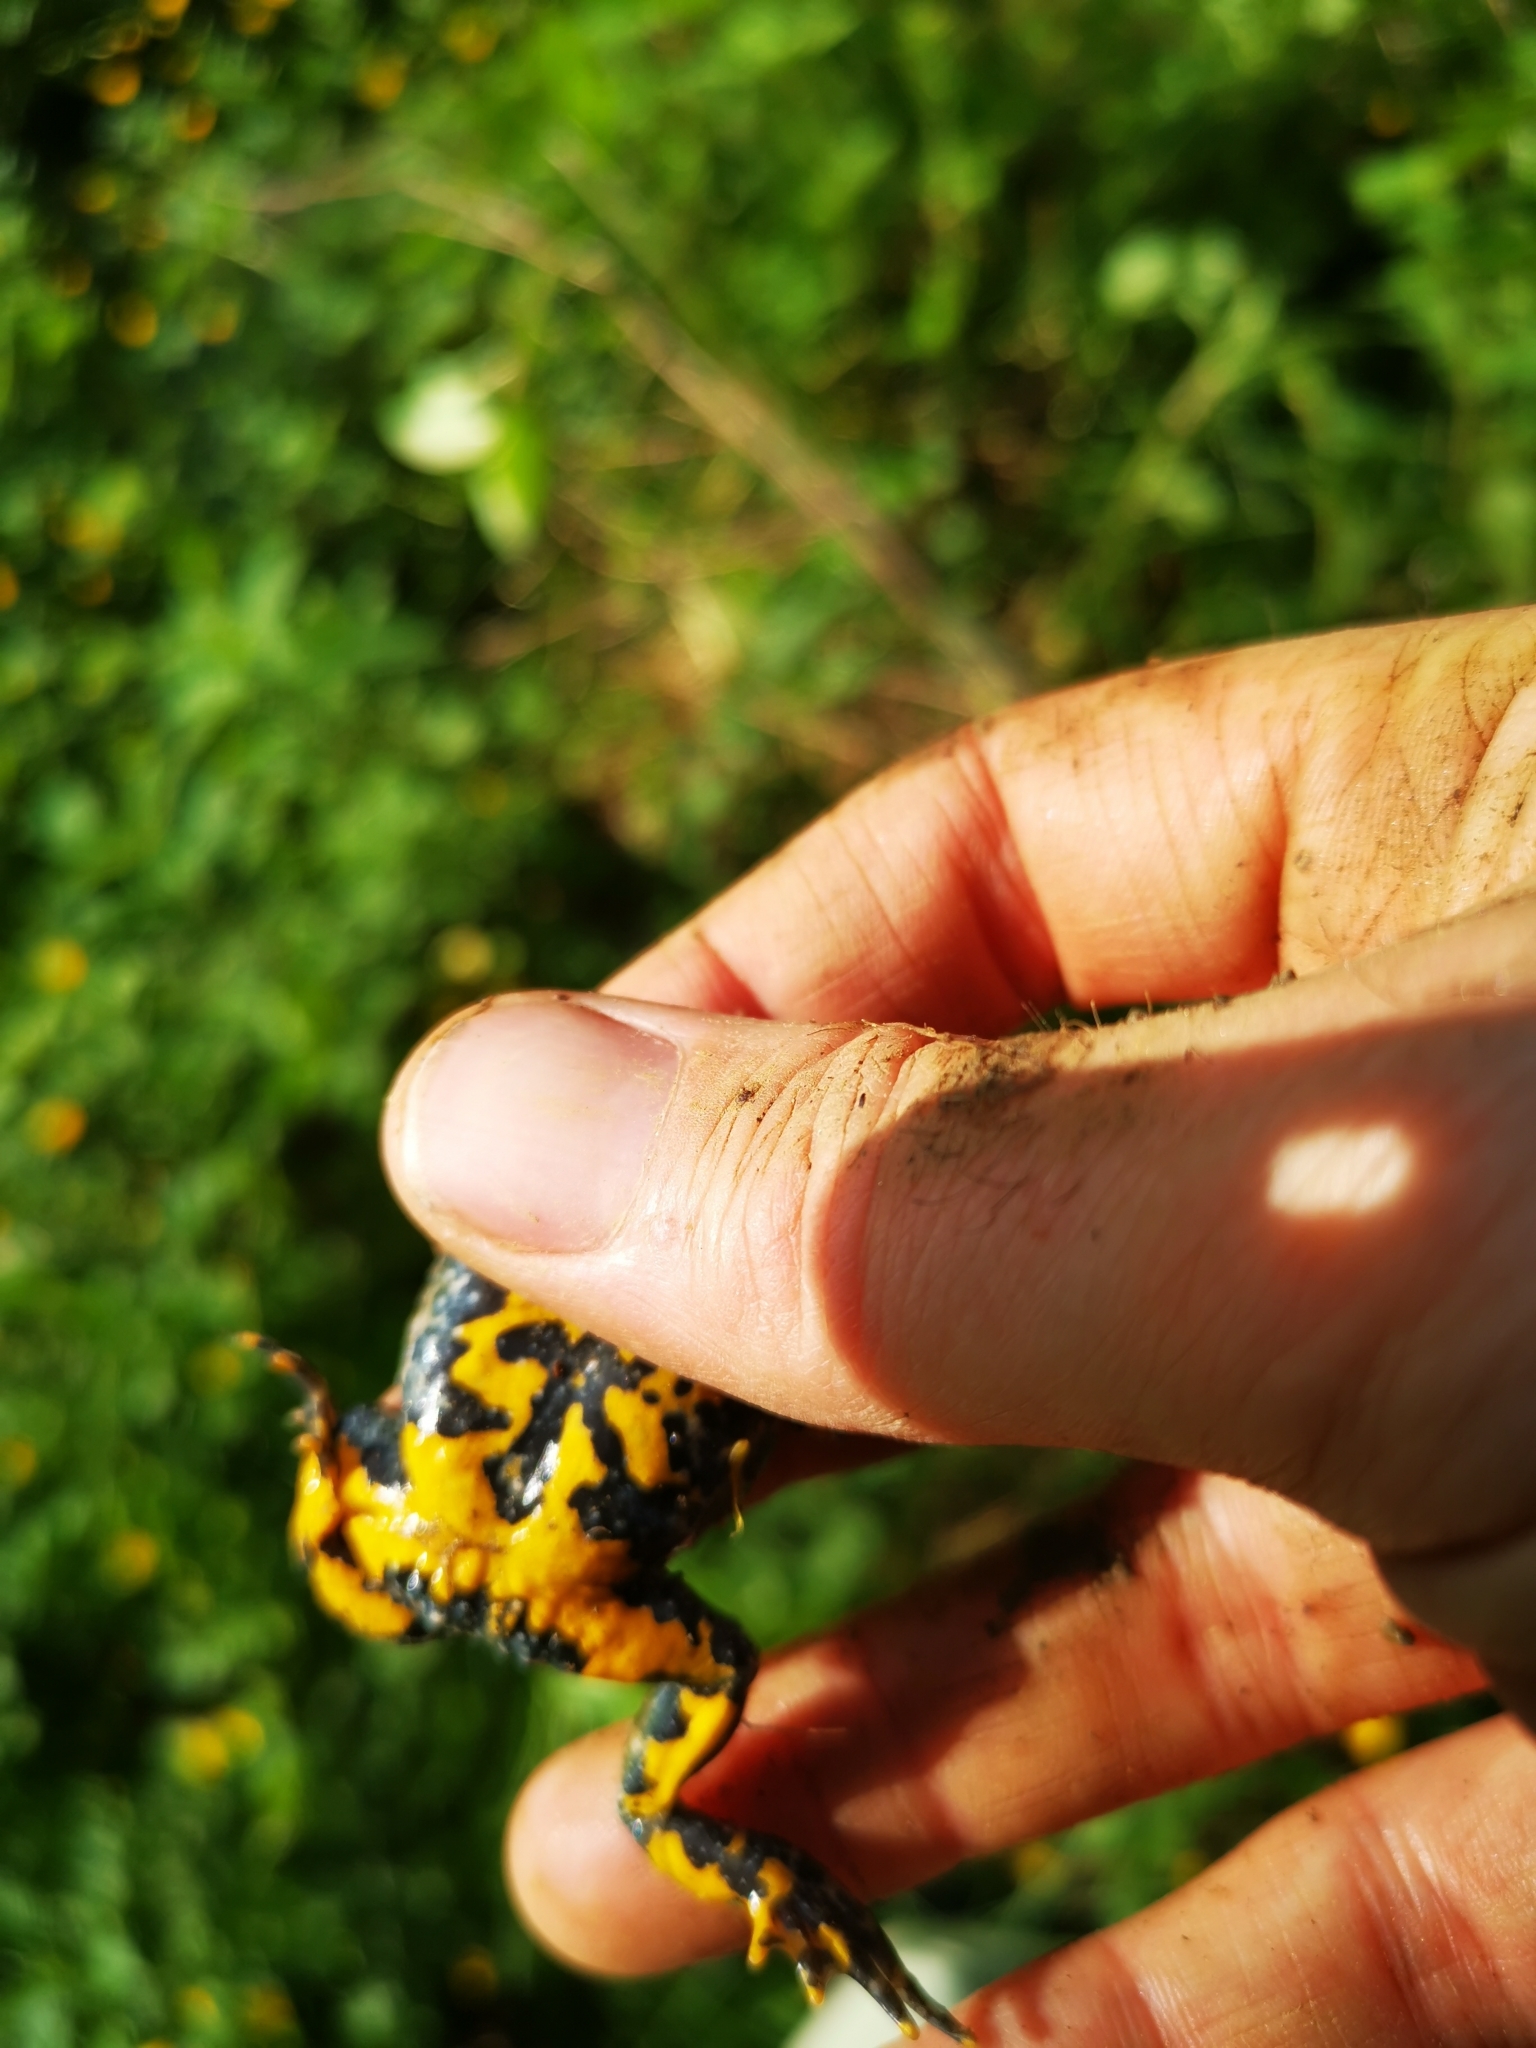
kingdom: Animalia
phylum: Chordata
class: Amphibia
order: Anura
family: Bombinatoridae
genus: Bombina
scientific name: Bombina variegata
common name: Yellow-bellied toad
